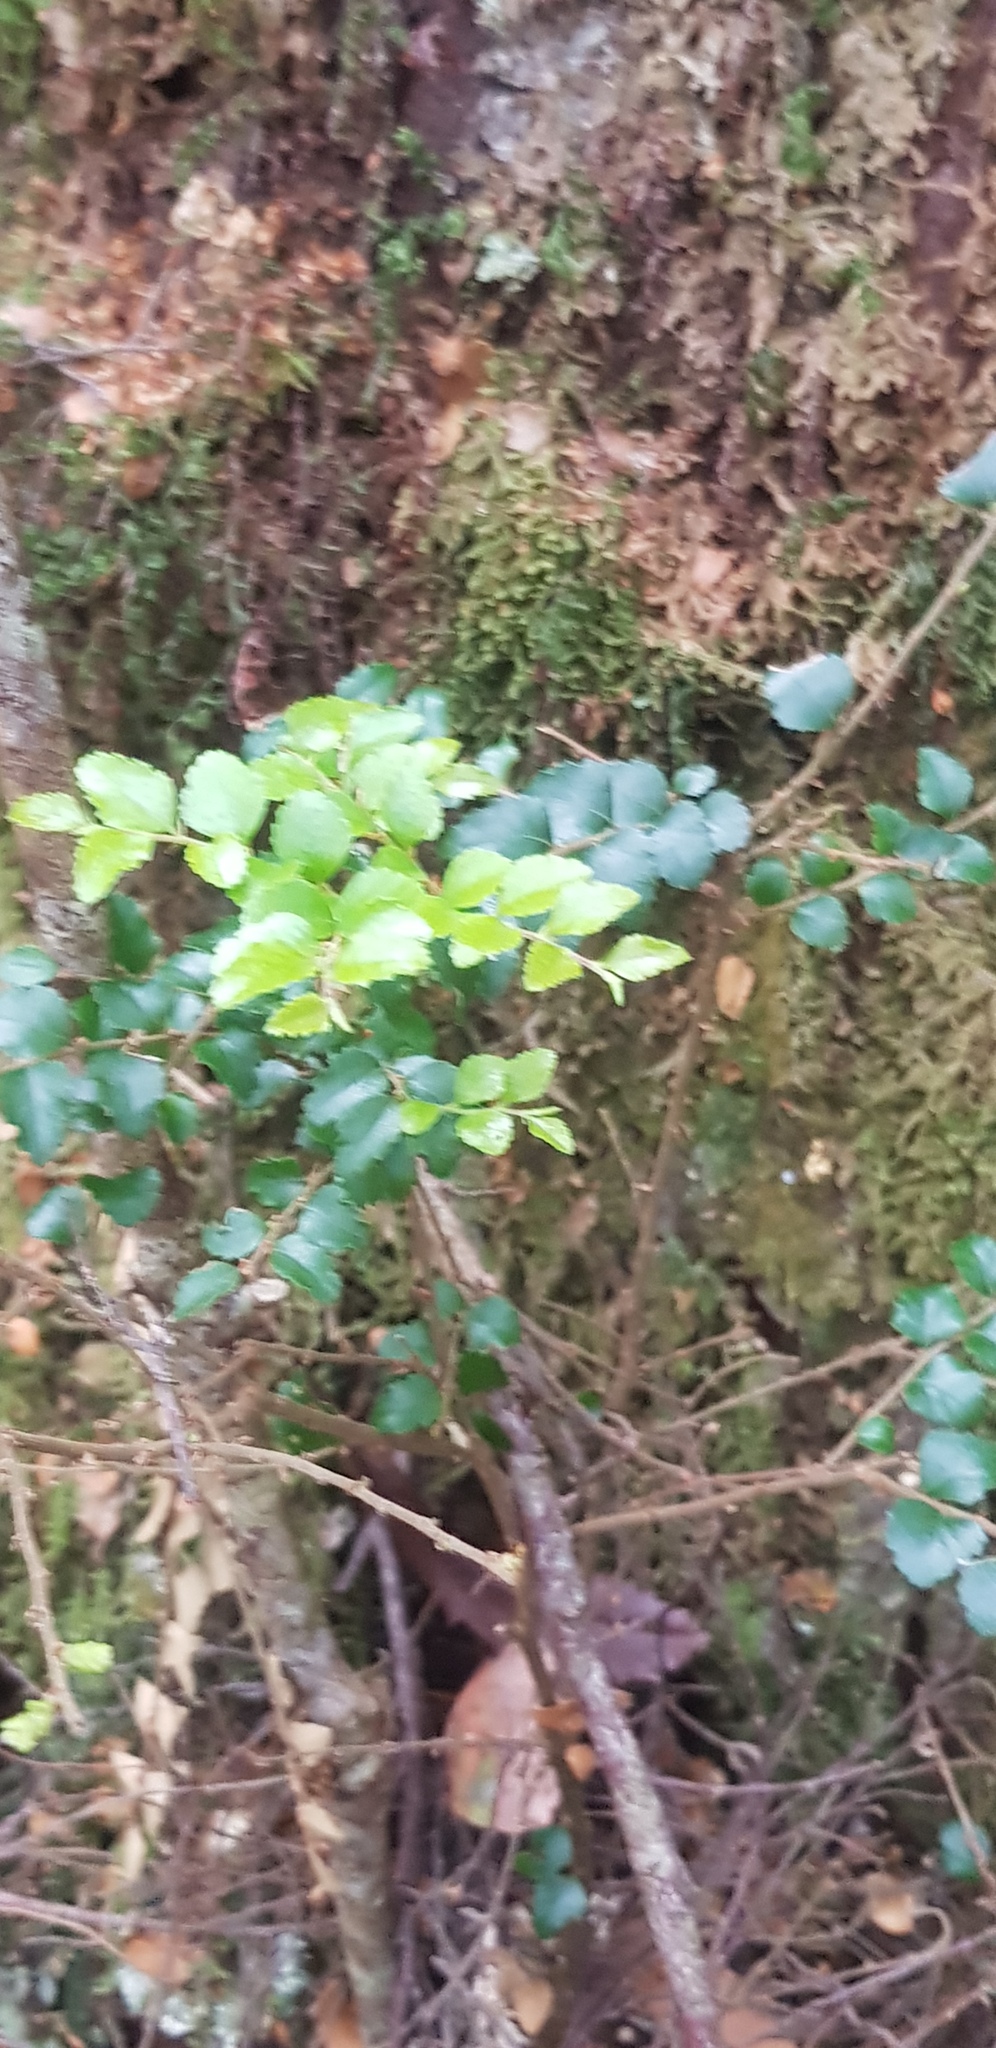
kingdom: Plantae
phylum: Tracheophyta
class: Magnoliopsida
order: Fagales
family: Nothofagaceae
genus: Nothofagus
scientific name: Nothofagus cunninghamii
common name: Myrtle beech
